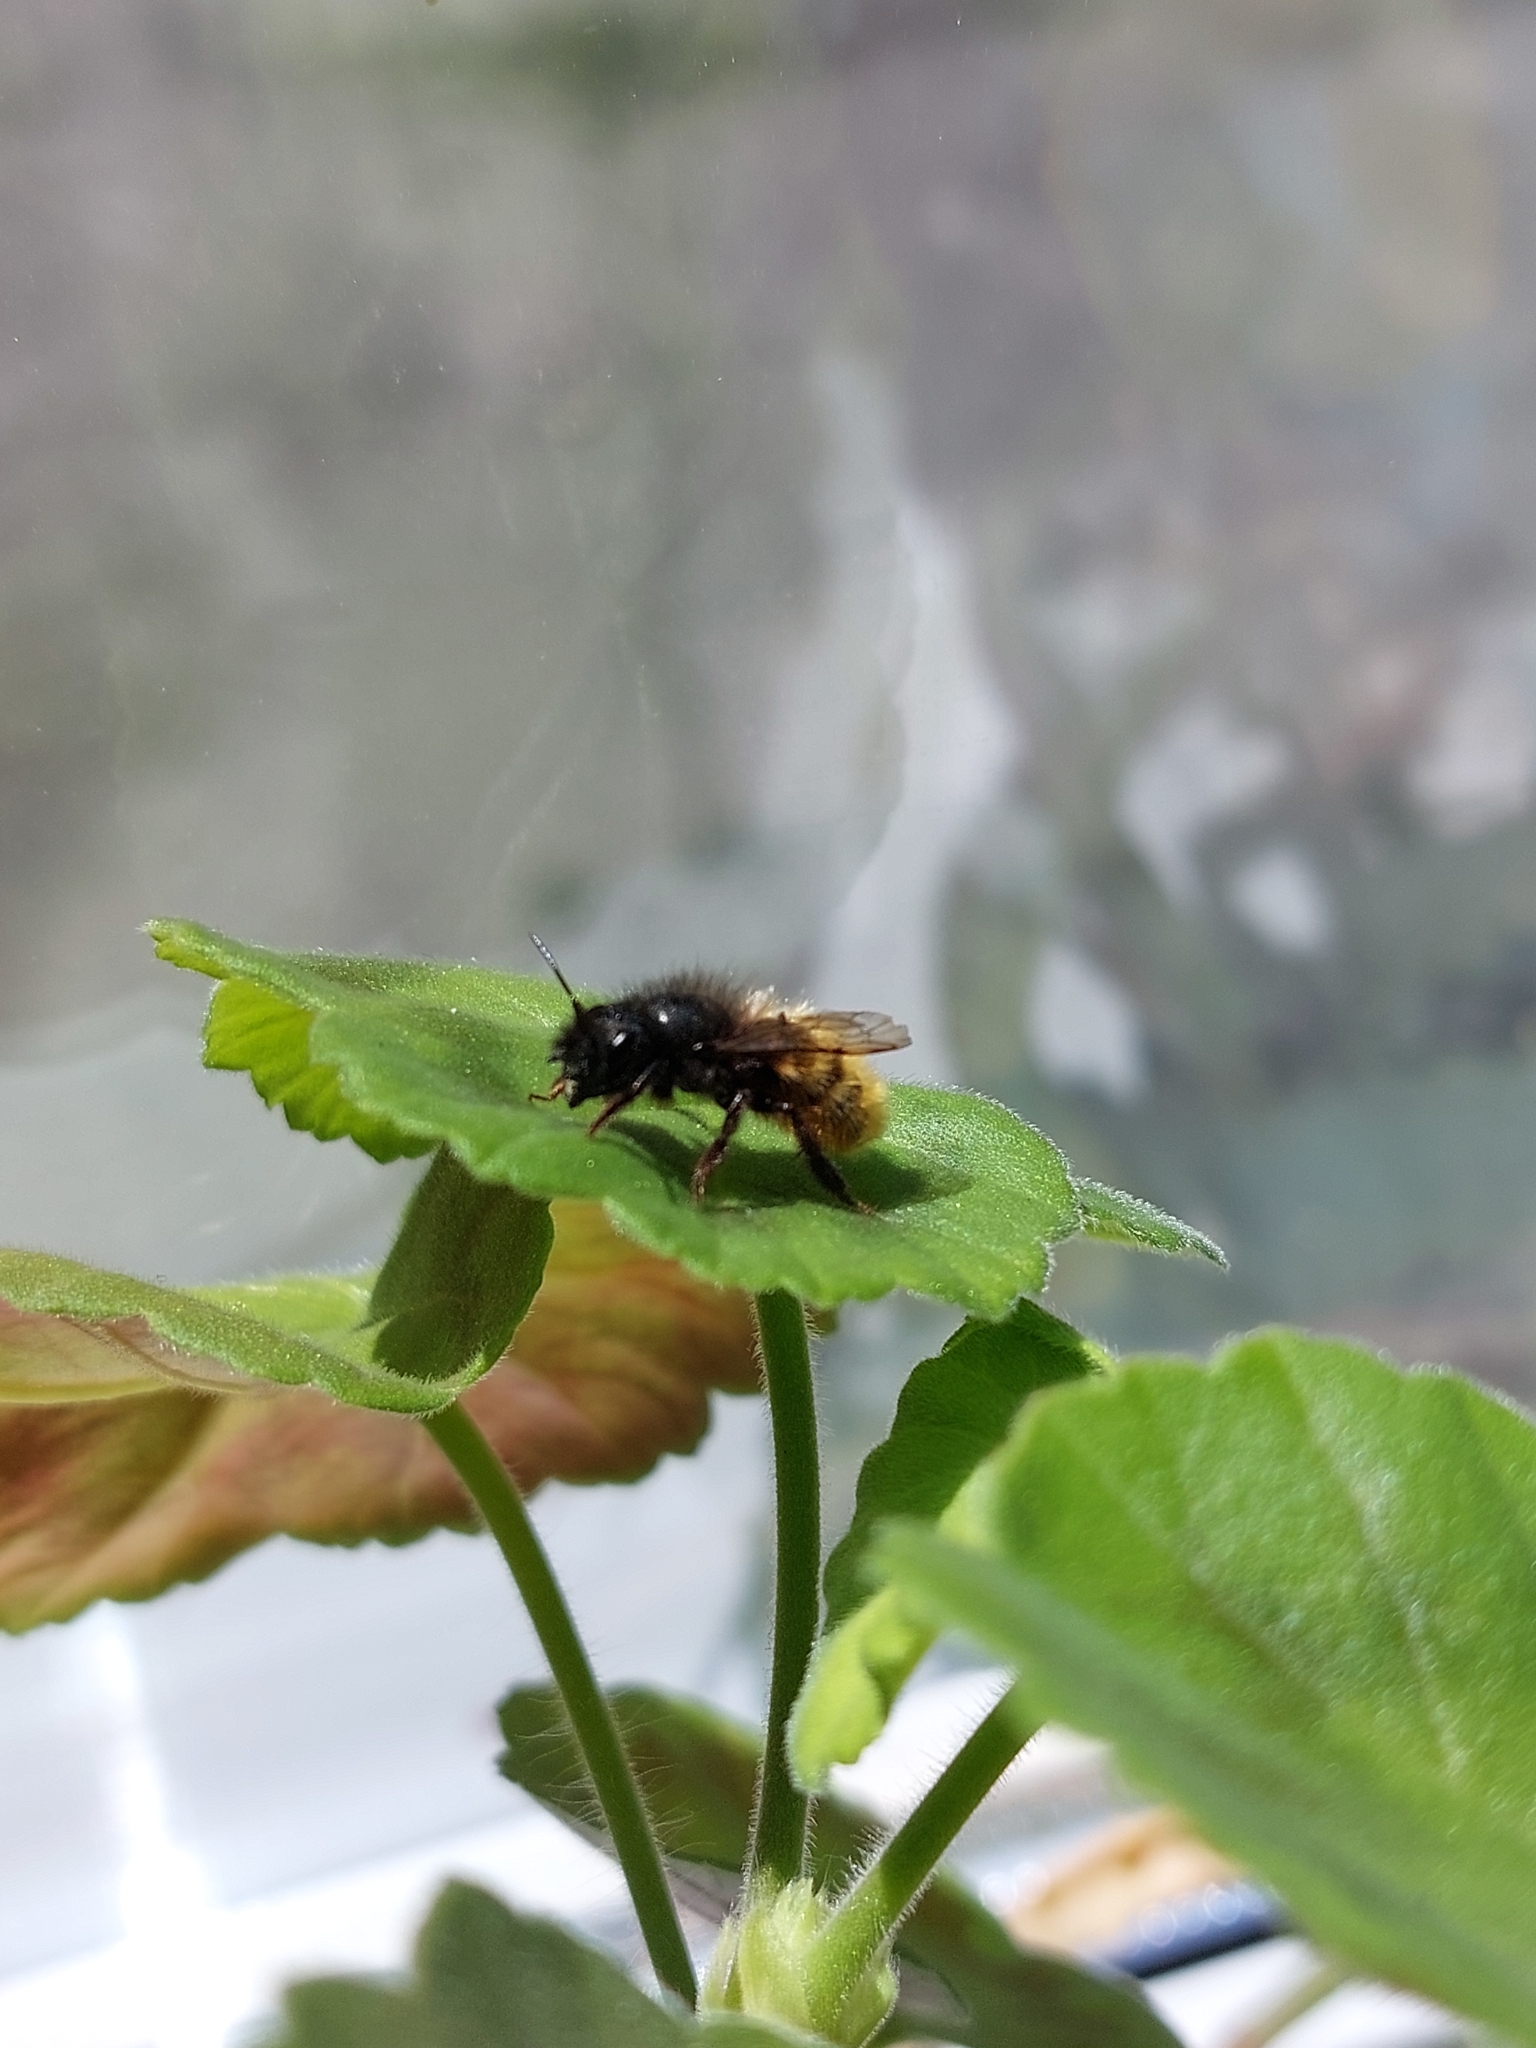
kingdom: Animalia
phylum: Arthropoda
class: Insecta
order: Hymenoptera
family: Megachilidae
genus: Osmia
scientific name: Osmia cornuta
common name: Mason bee
